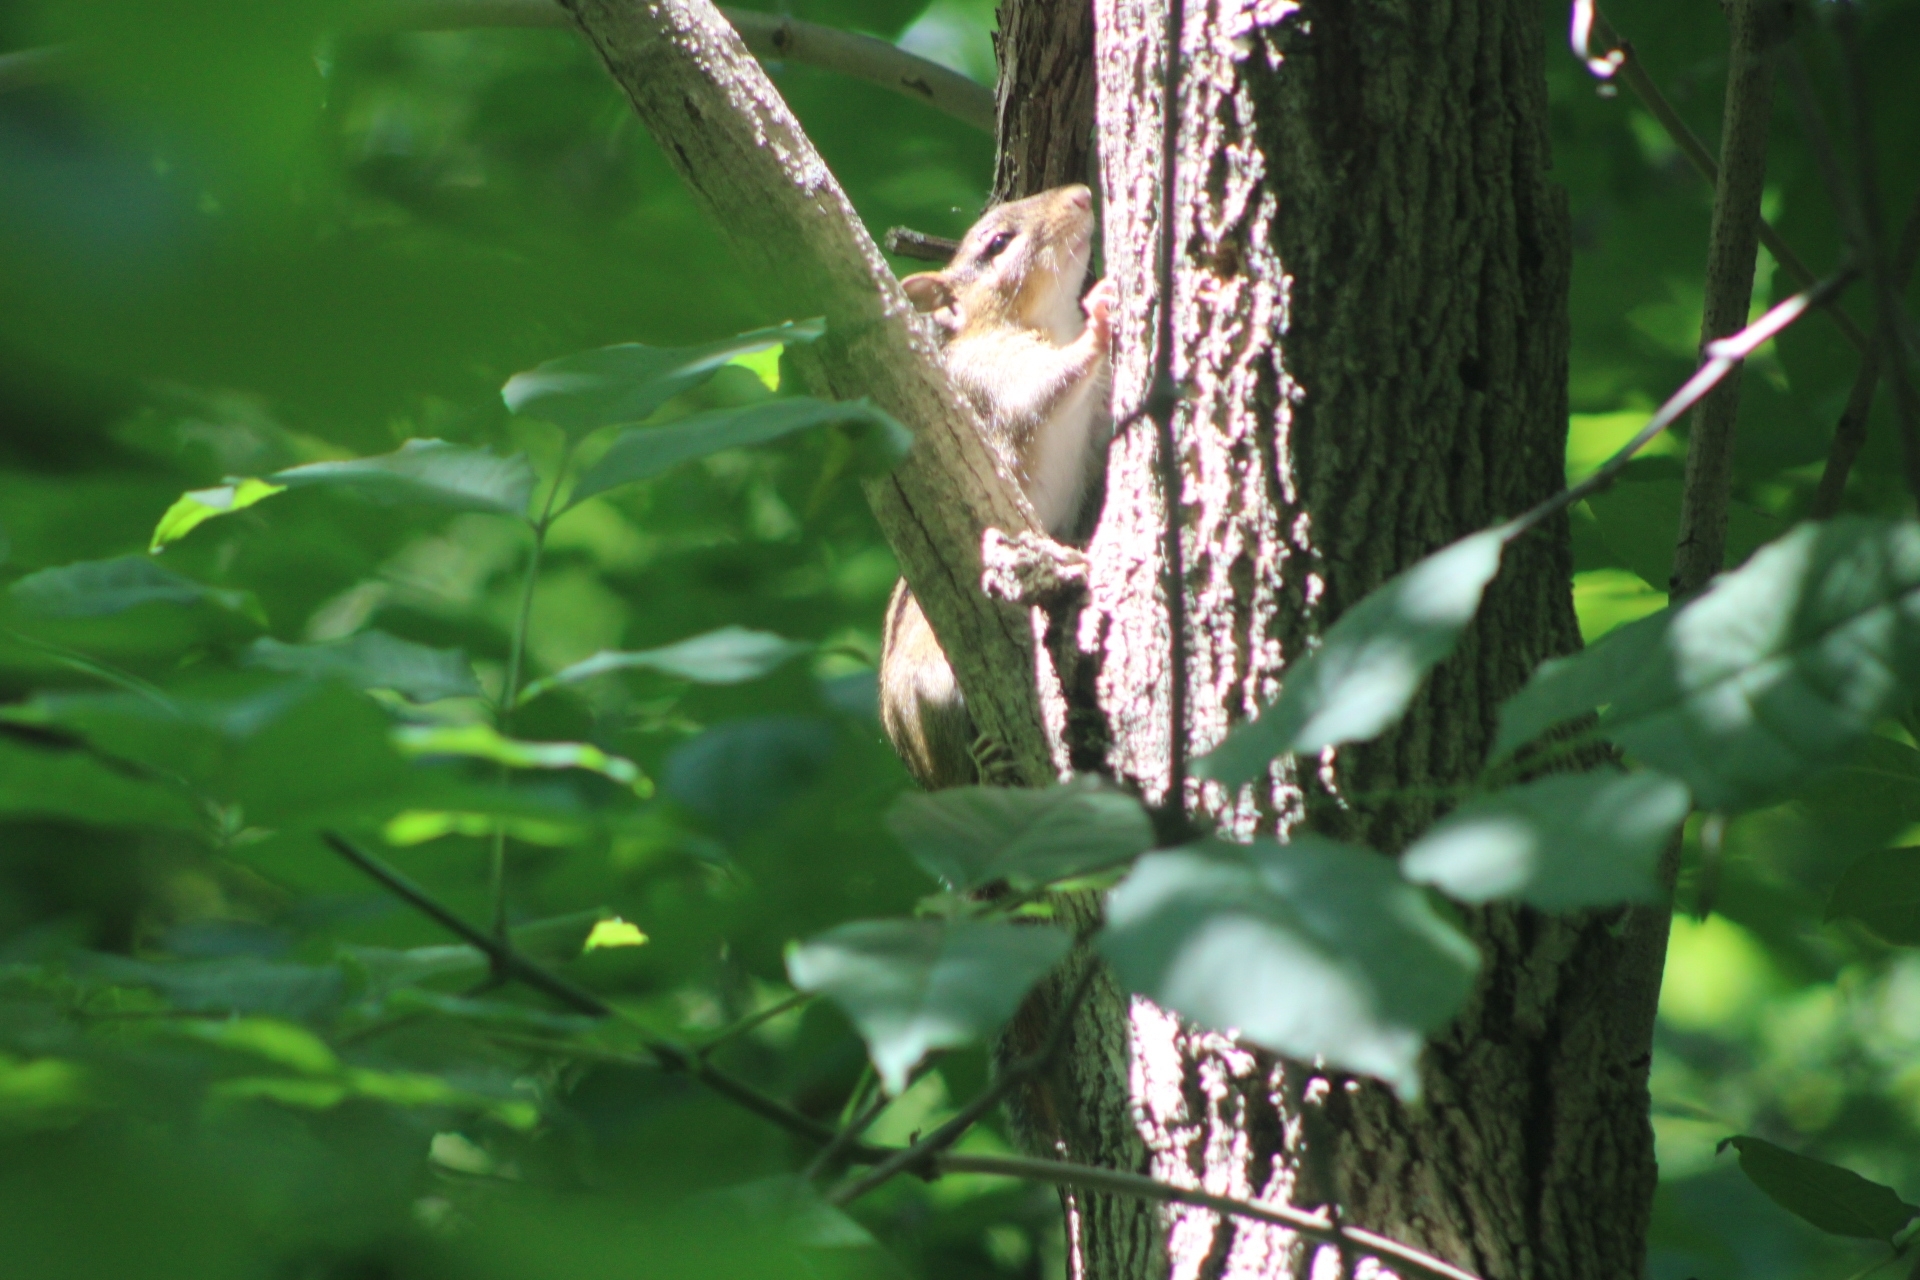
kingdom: Animalia
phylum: Chordata
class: Mammalia
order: Rodentia
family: Sciuridae
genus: Tamias
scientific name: Tamias striatus
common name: Eastern chipmunk
